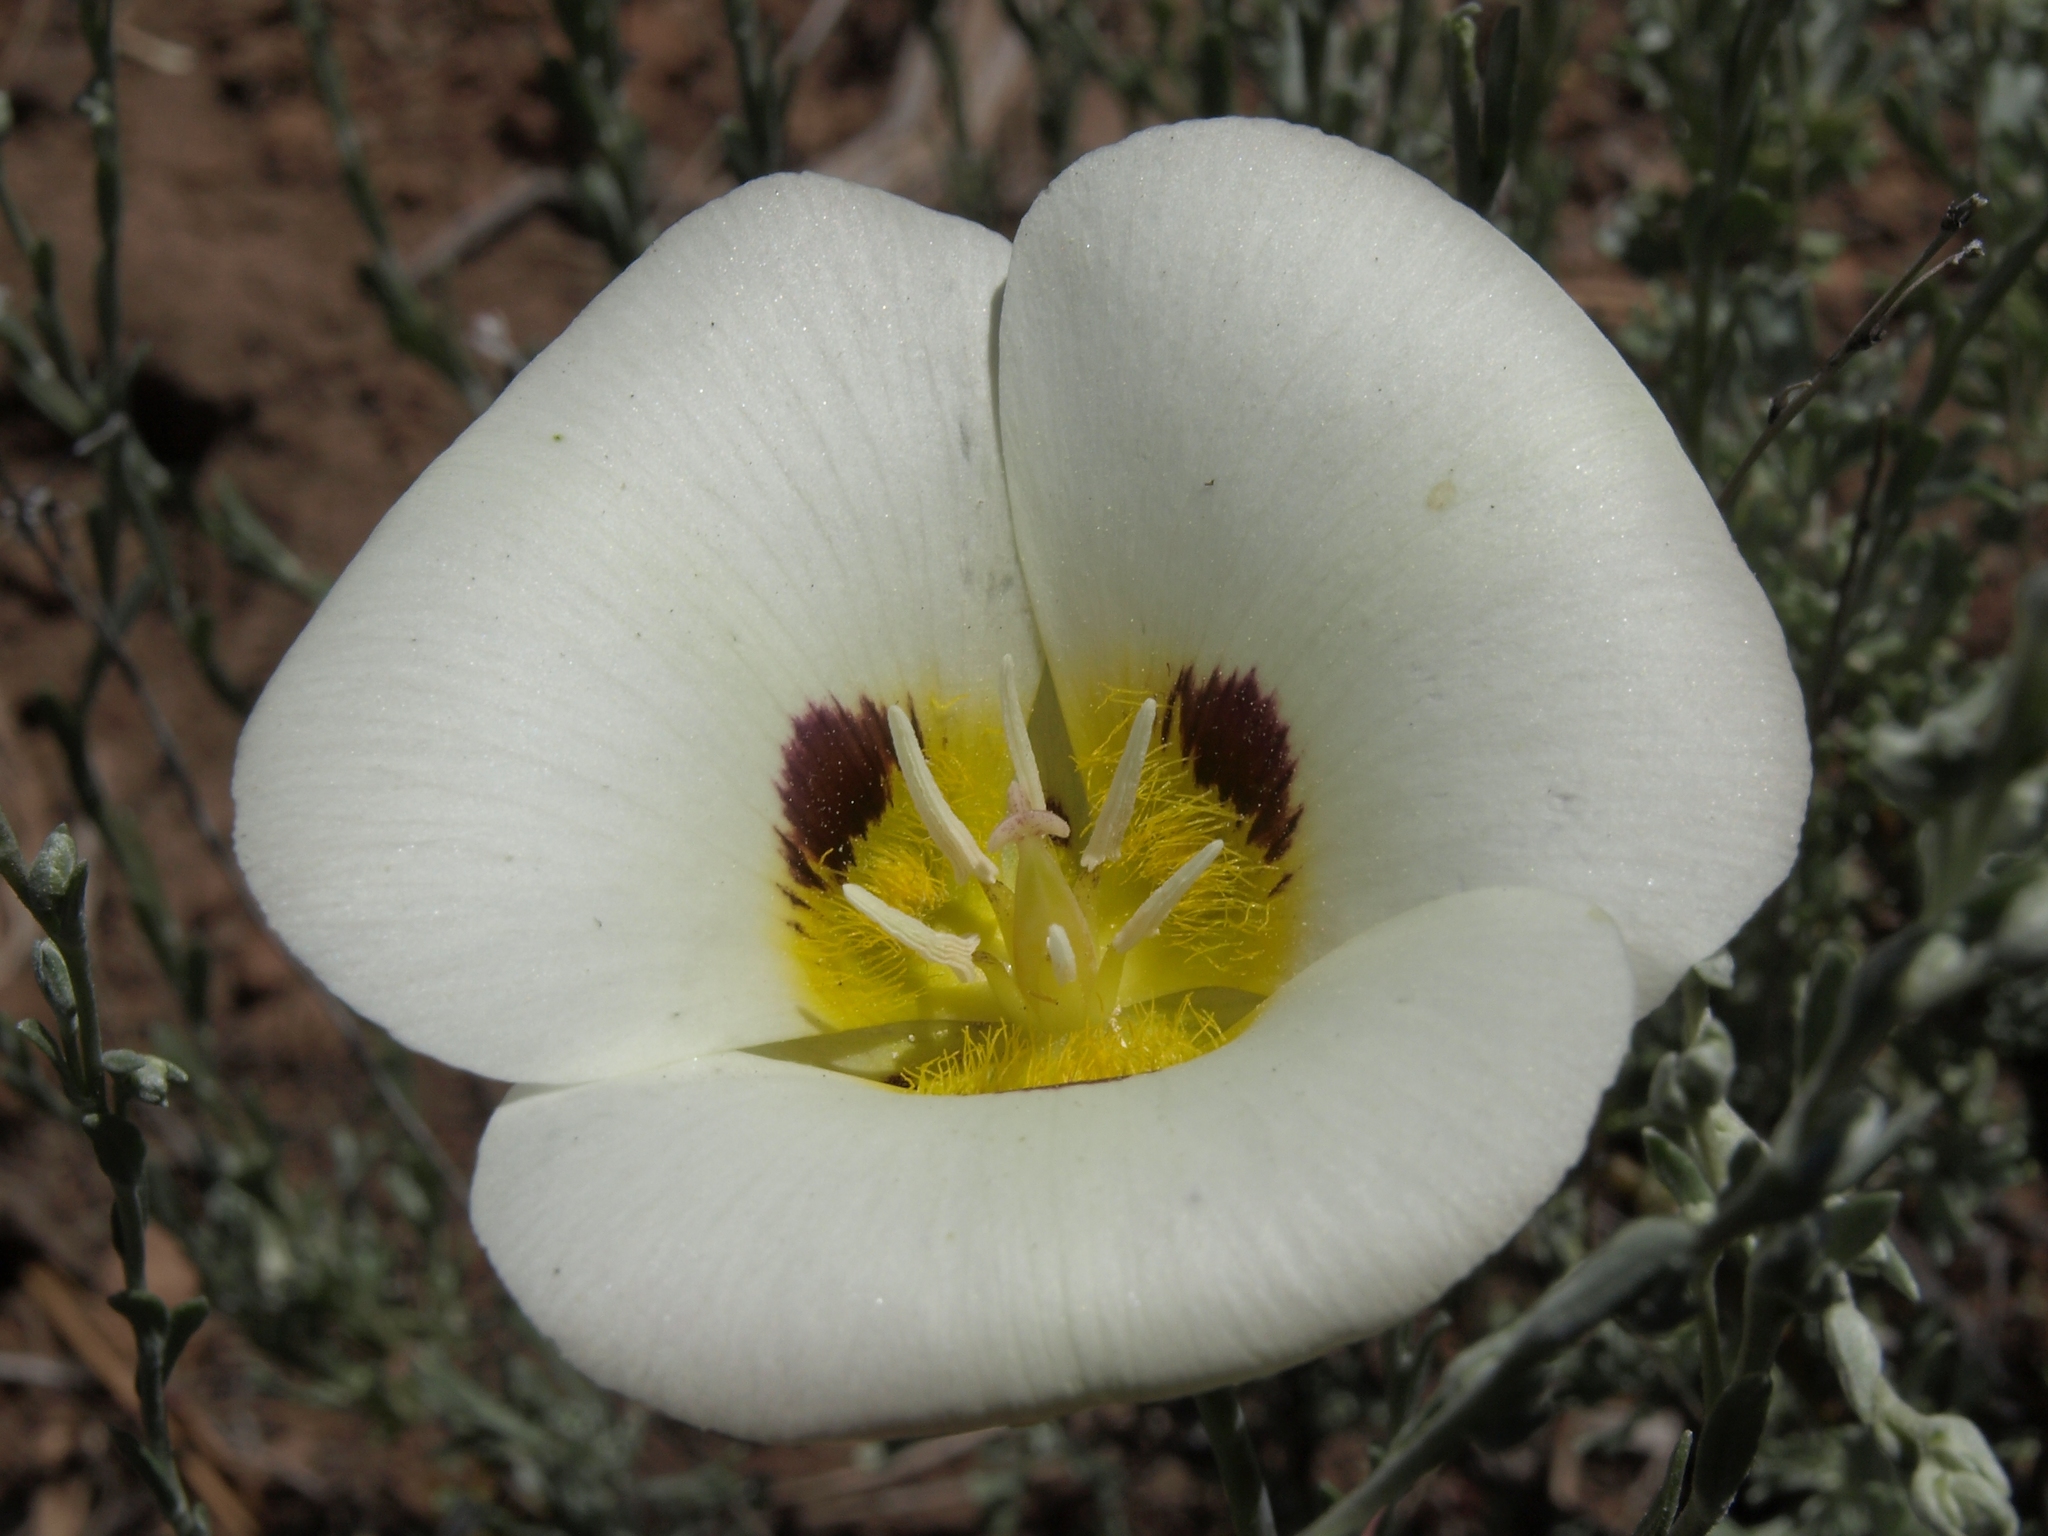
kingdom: Plantae
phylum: Tracheophyta
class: Liliopsida
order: Liliales
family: Liliaceae
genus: Calochortus
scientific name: Calochortus leichtlinii
